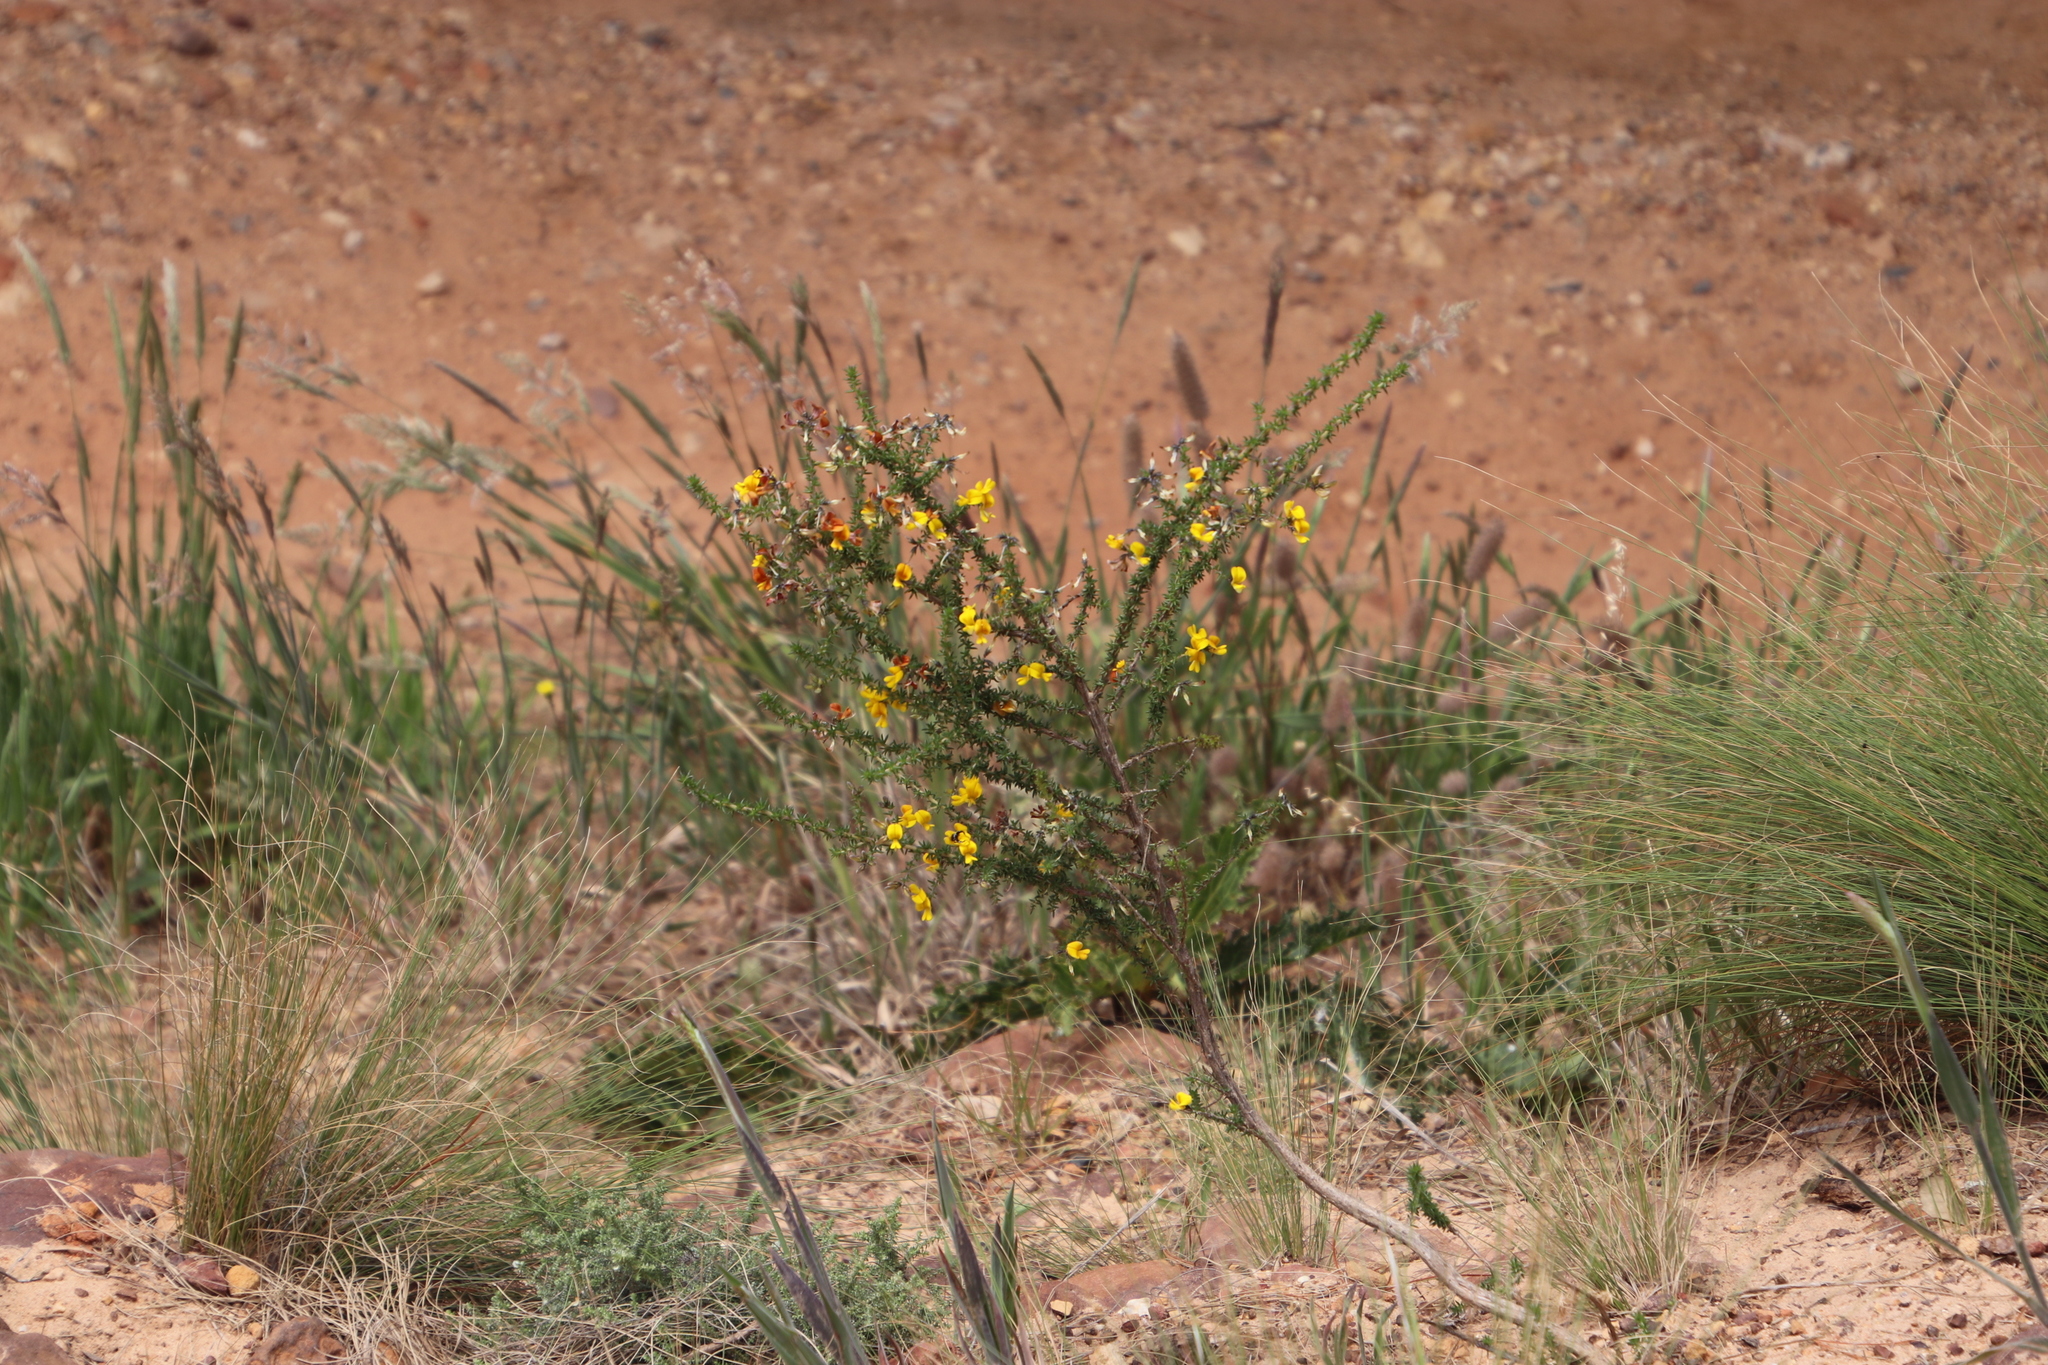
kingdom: Plantae
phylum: Tracheophyta
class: Magnoliopsida
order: Fabales
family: Fabaceae
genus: Aspalathus
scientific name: Aspalathus divaricata
